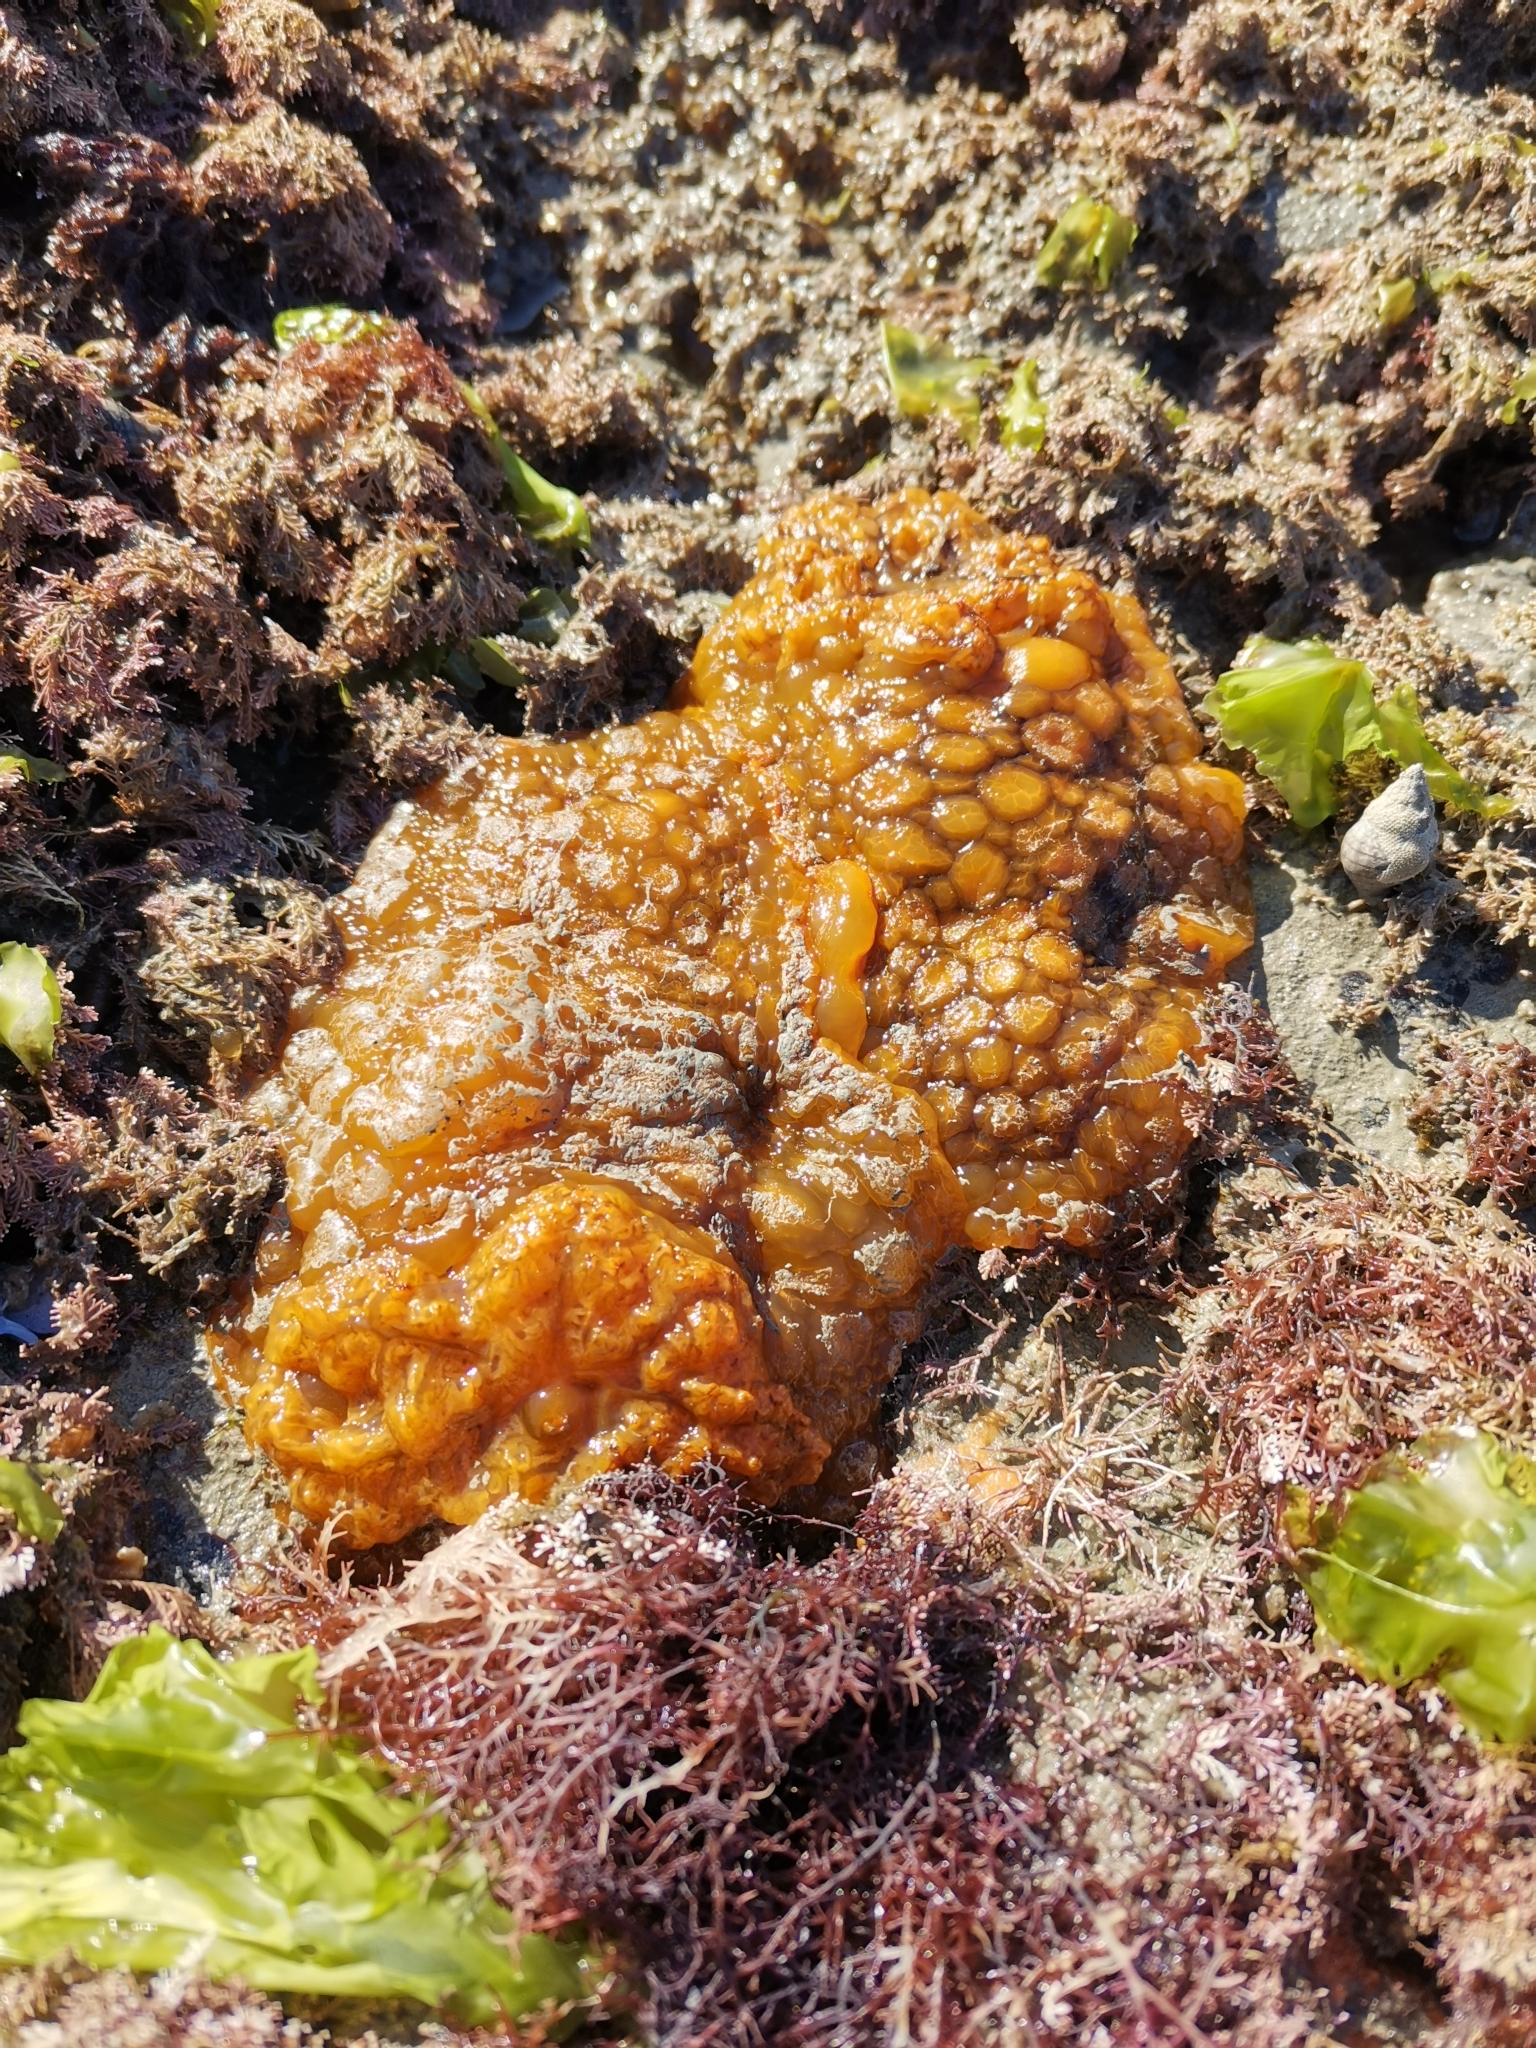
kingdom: Animalia
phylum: Mollusca
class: Gastropoda
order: Nudibranchia
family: Dorididae
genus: Doris
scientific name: Doris wellingtonensis
